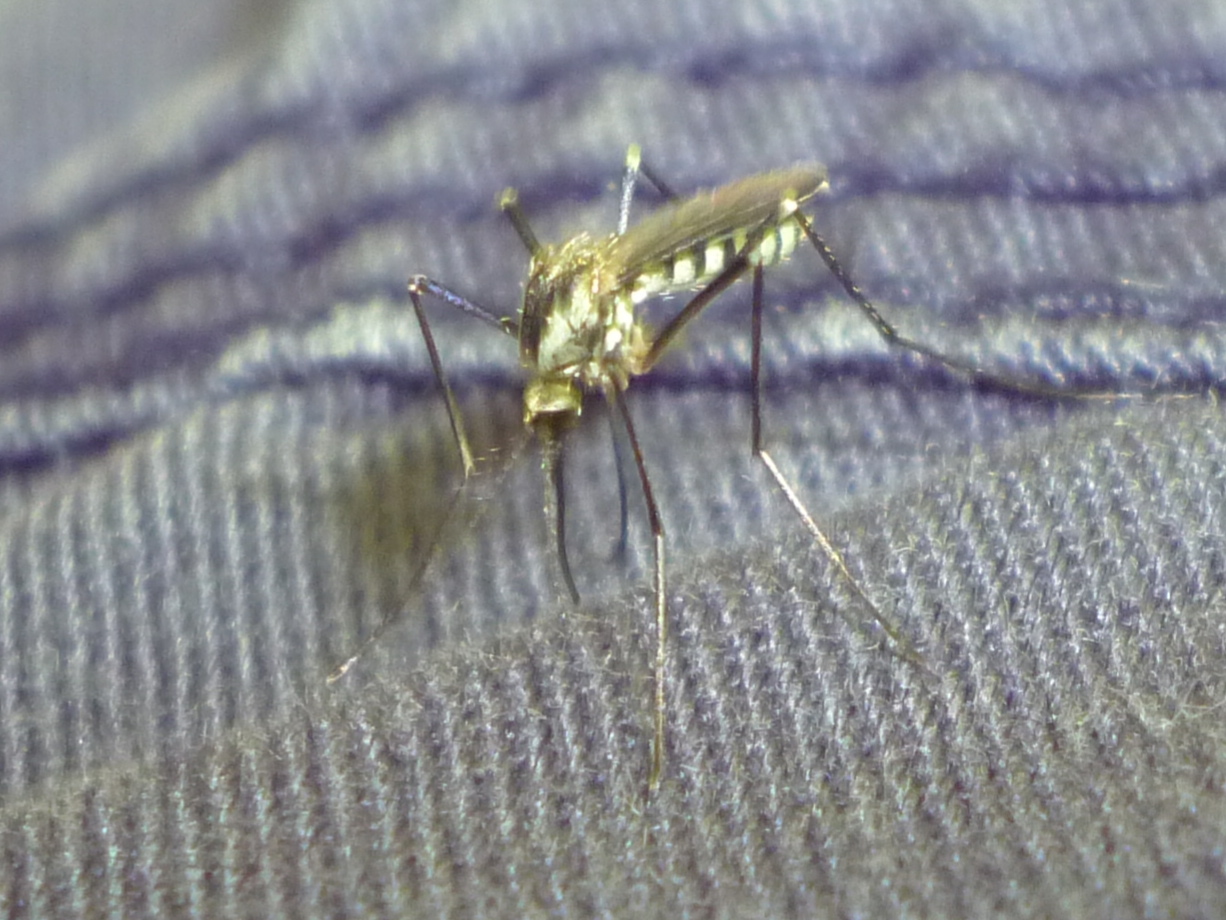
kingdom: Animalia
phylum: Arthropoda
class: Insecta
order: Diptera
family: Culicidae
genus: Aedes
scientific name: Aedes triseriatus
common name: Eastern treehole mosquito
